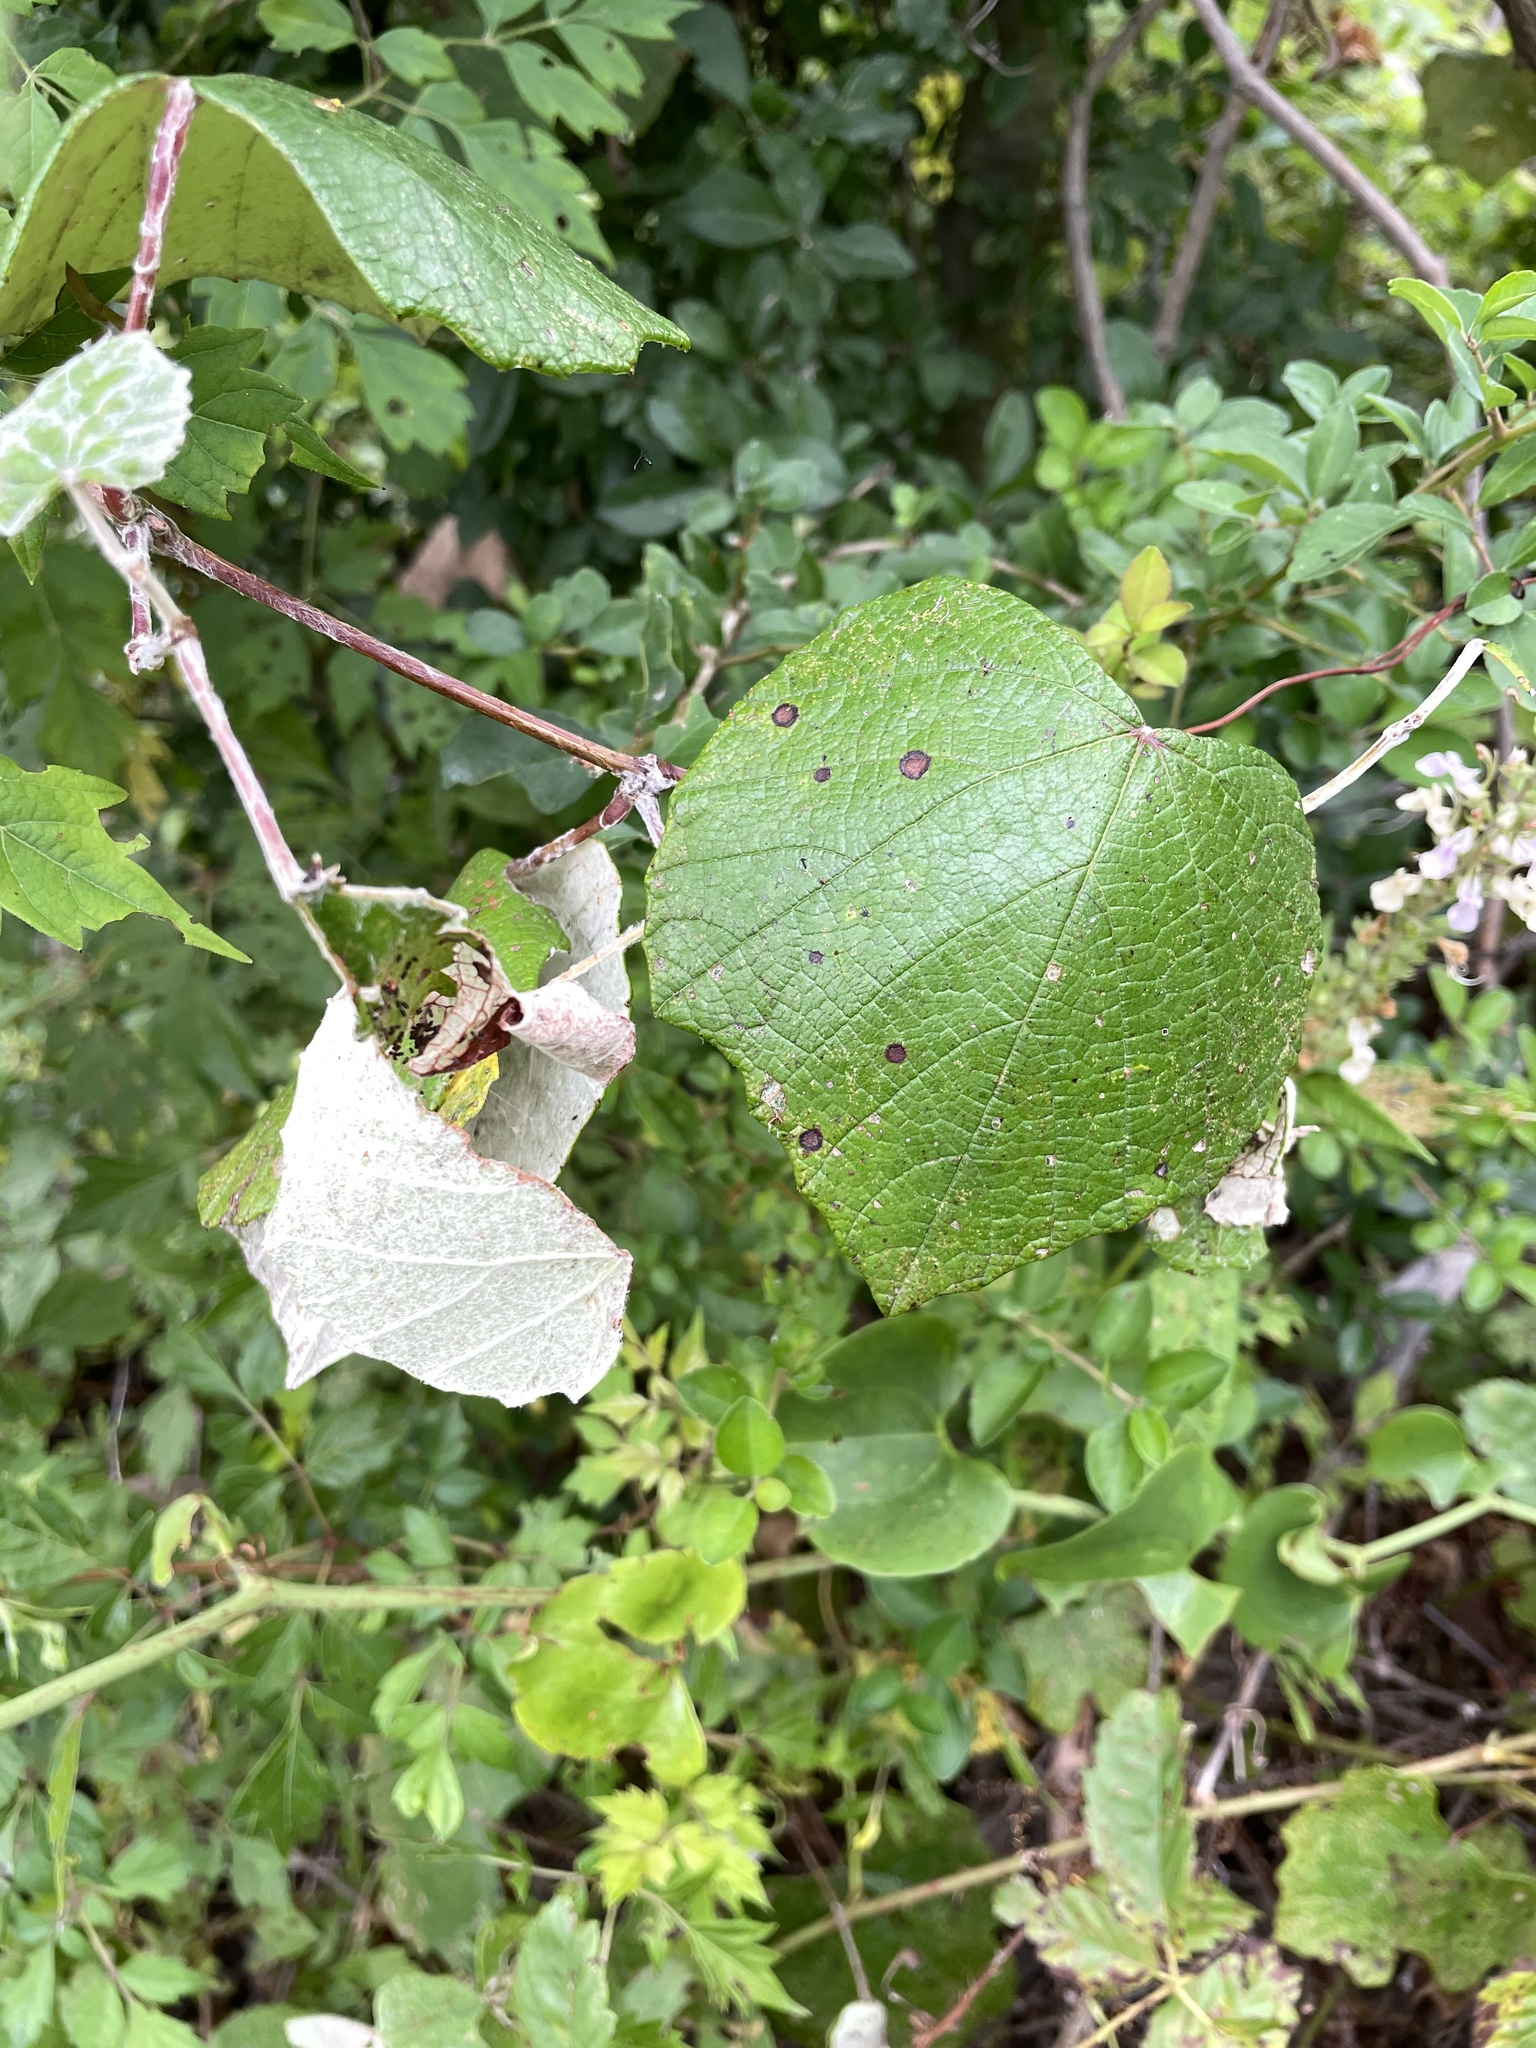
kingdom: Plantae
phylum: Tracheophyta
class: Magnoliopsida
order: Vitales
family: Vitaceae
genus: Vitis
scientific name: Vitis mustangensis
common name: Mustang grape
